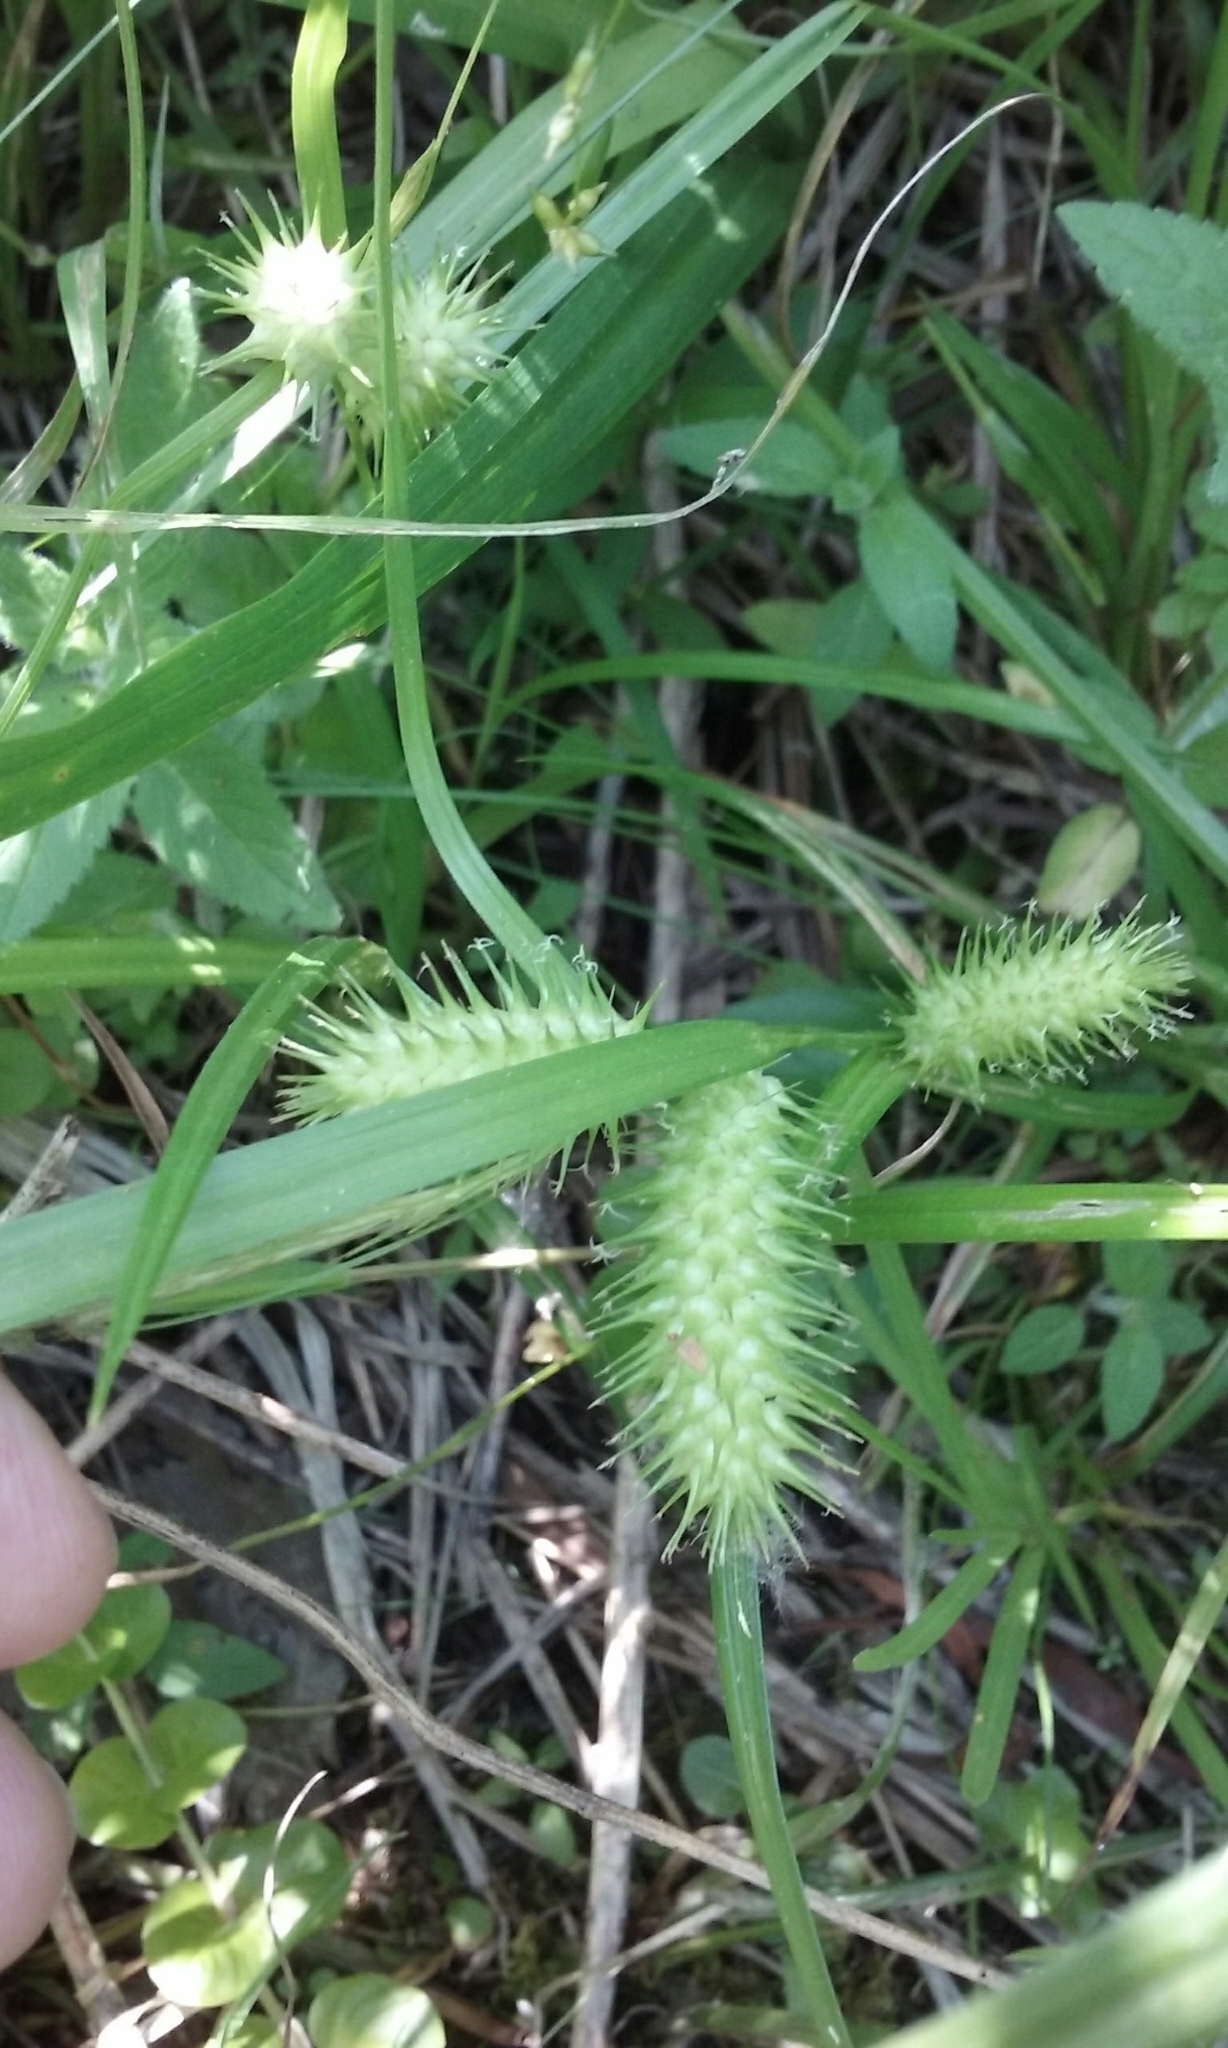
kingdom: Plantae
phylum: Tracheophyta
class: Liliopsida
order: Poales
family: Cyperaceae
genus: Carex
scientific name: Carex lurida
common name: Sallow sedge
